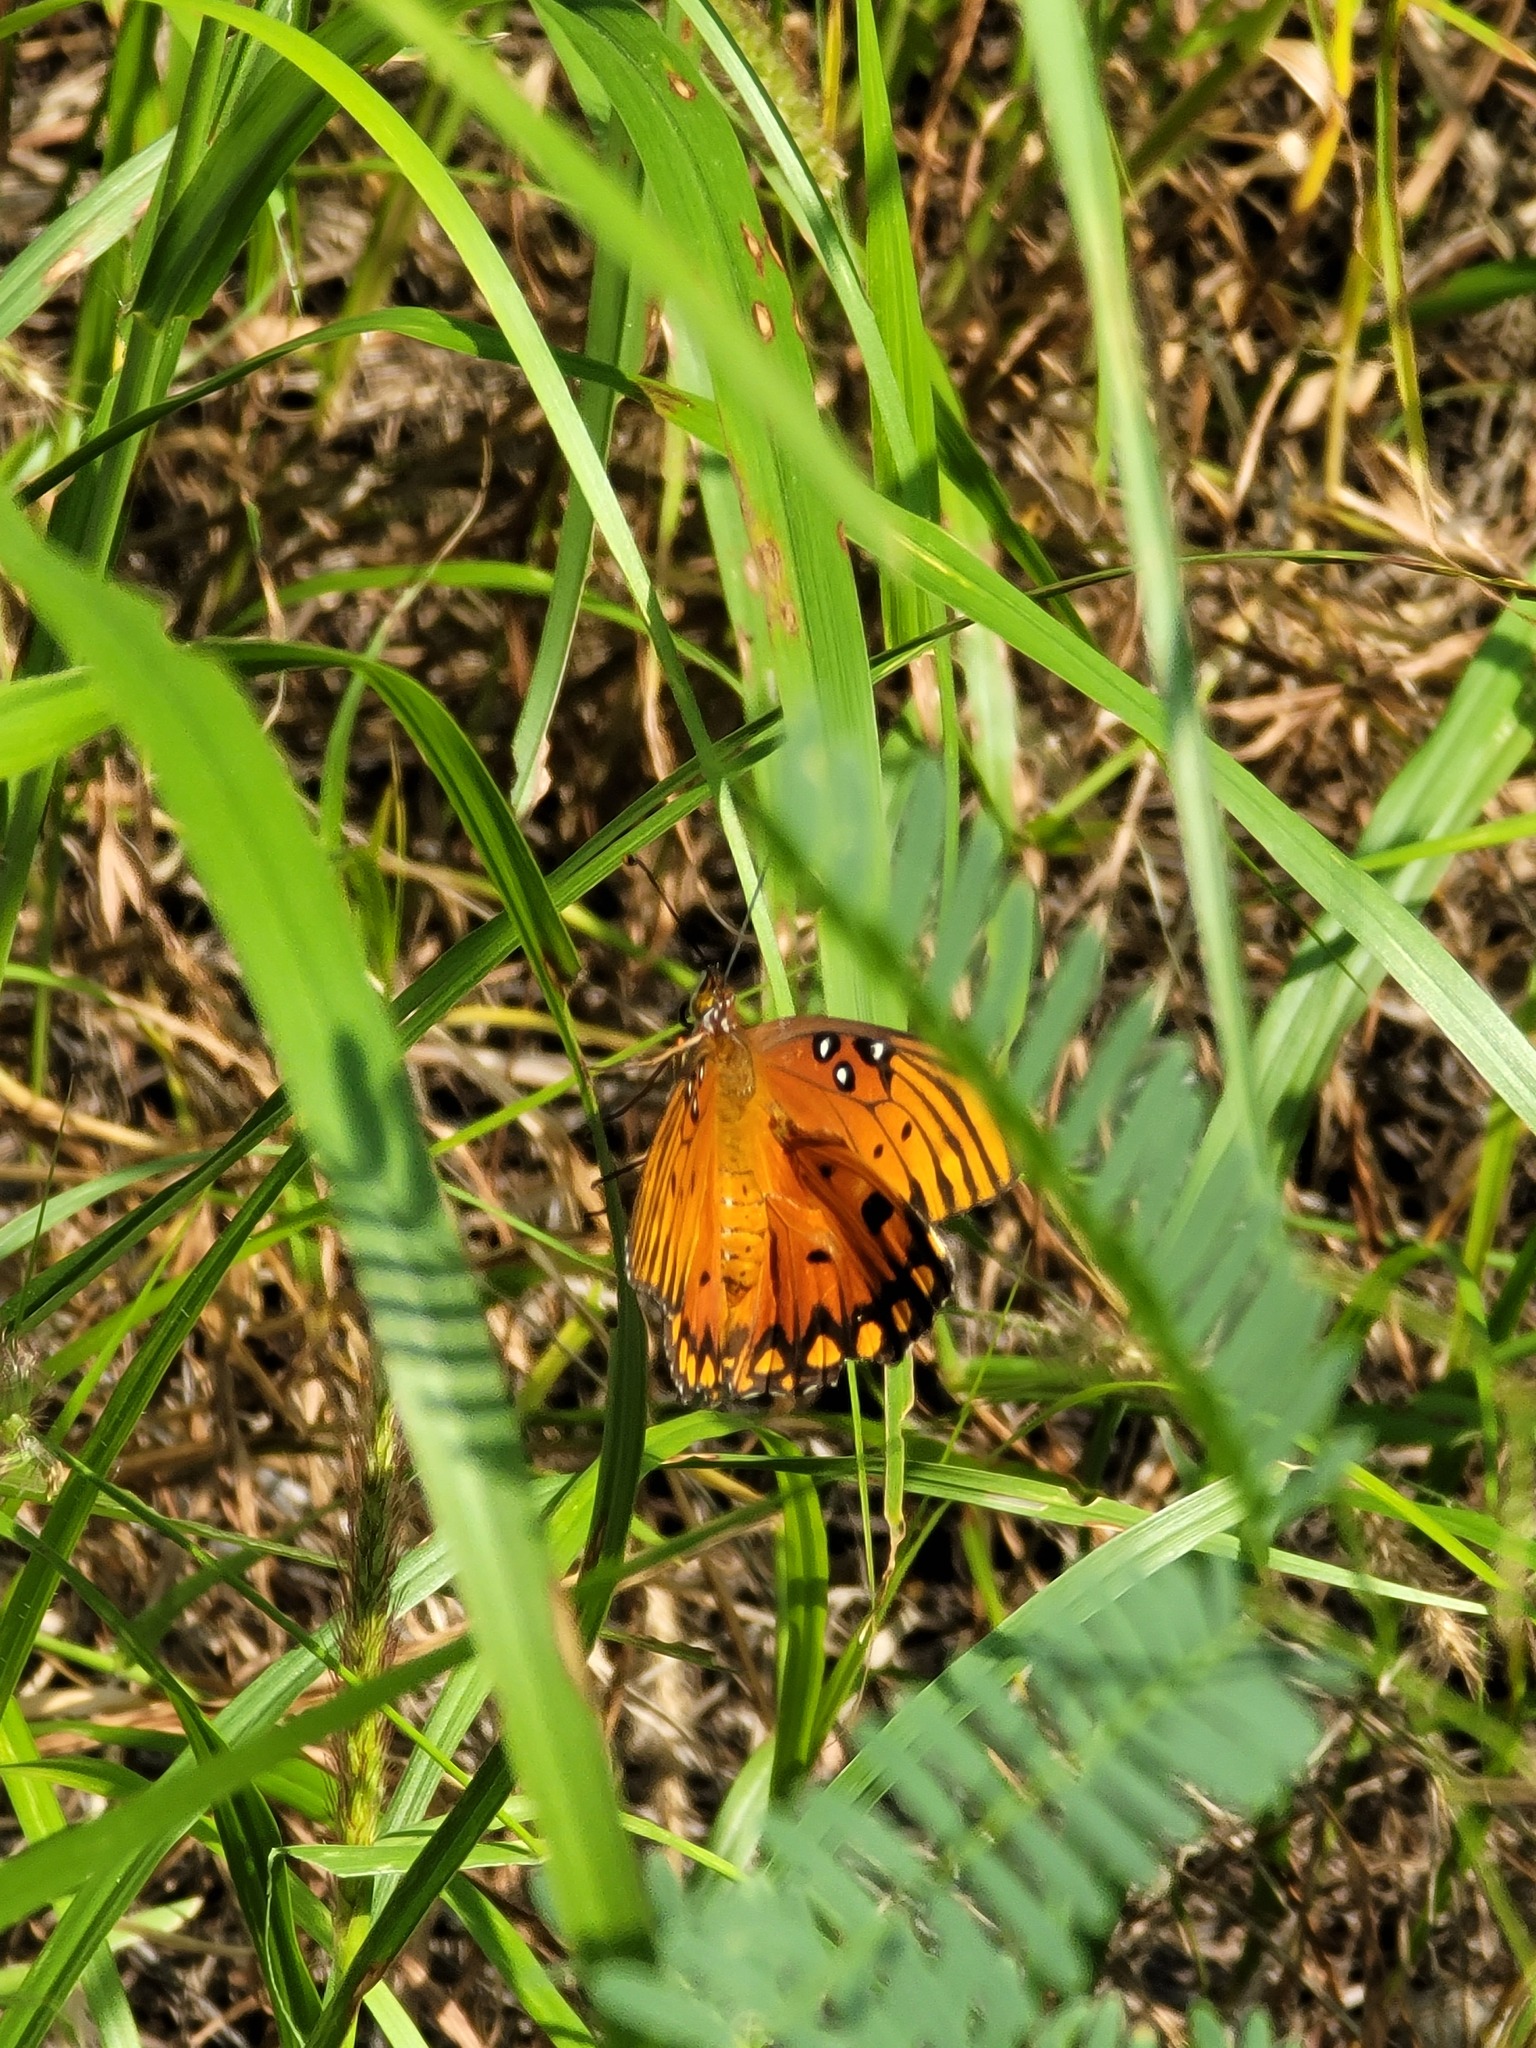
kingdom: Animalia
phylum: Arthropoda
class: Insecta
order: Lepidoptera
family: Nymphalidae
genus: Dione
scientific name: Dione vanillae
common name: Gulf fritillary
